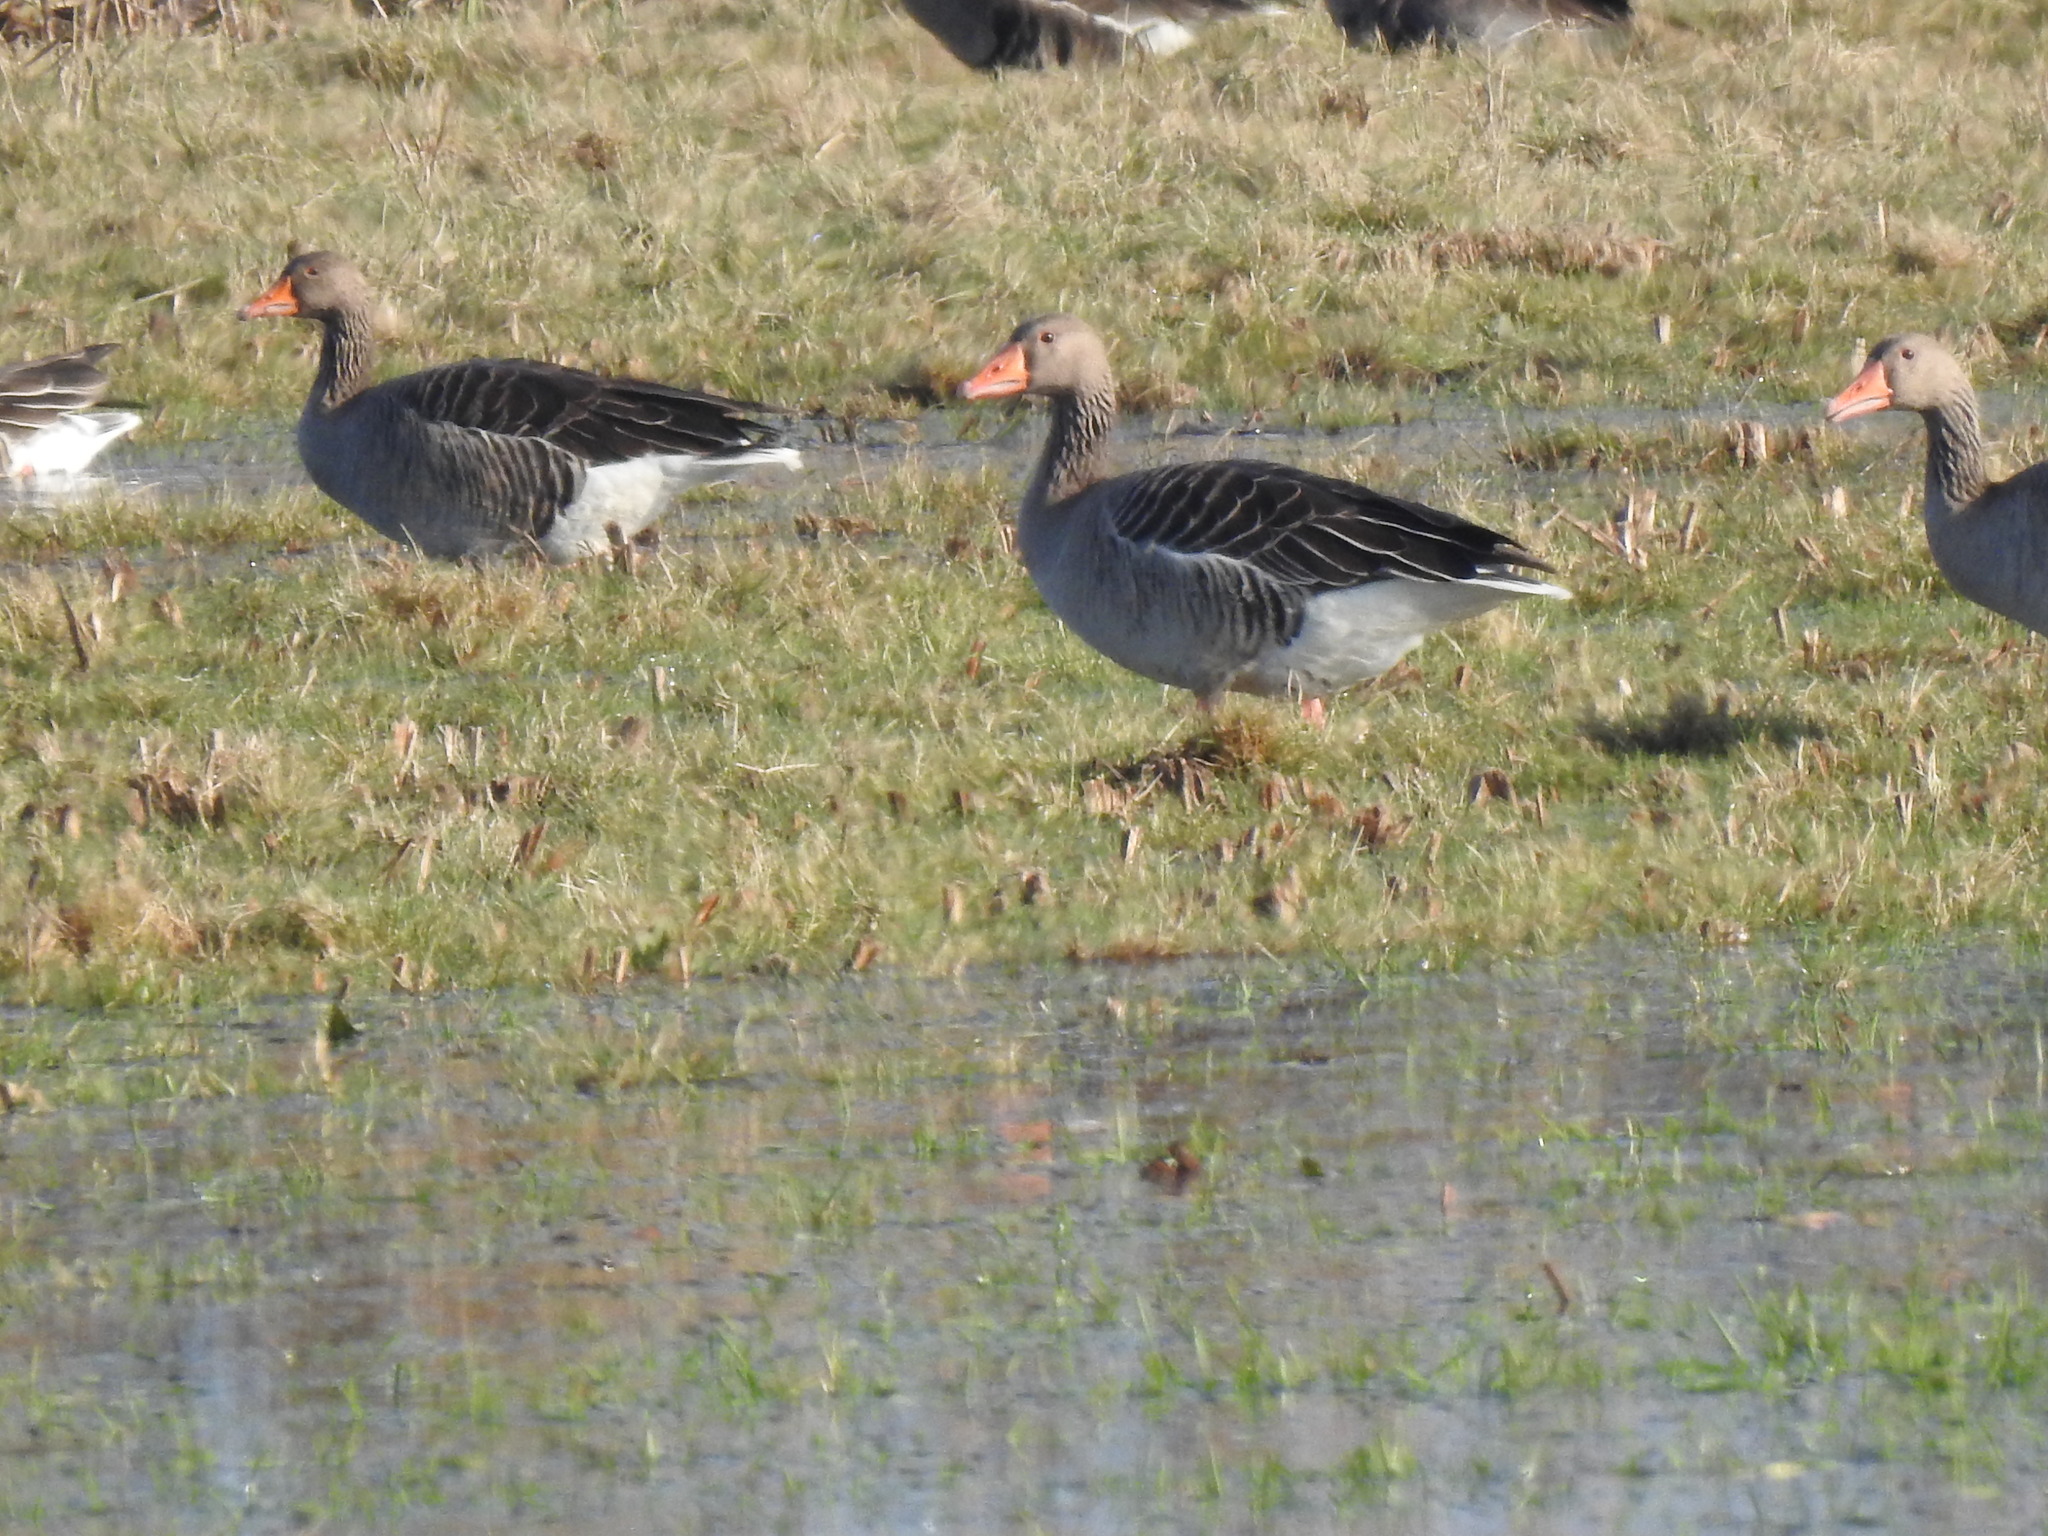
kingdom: Animalia
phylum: Chordata
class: Aves
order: Anseriformes
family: Anatidae
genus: Anser
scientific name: Anser anser
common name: Greylag goose
